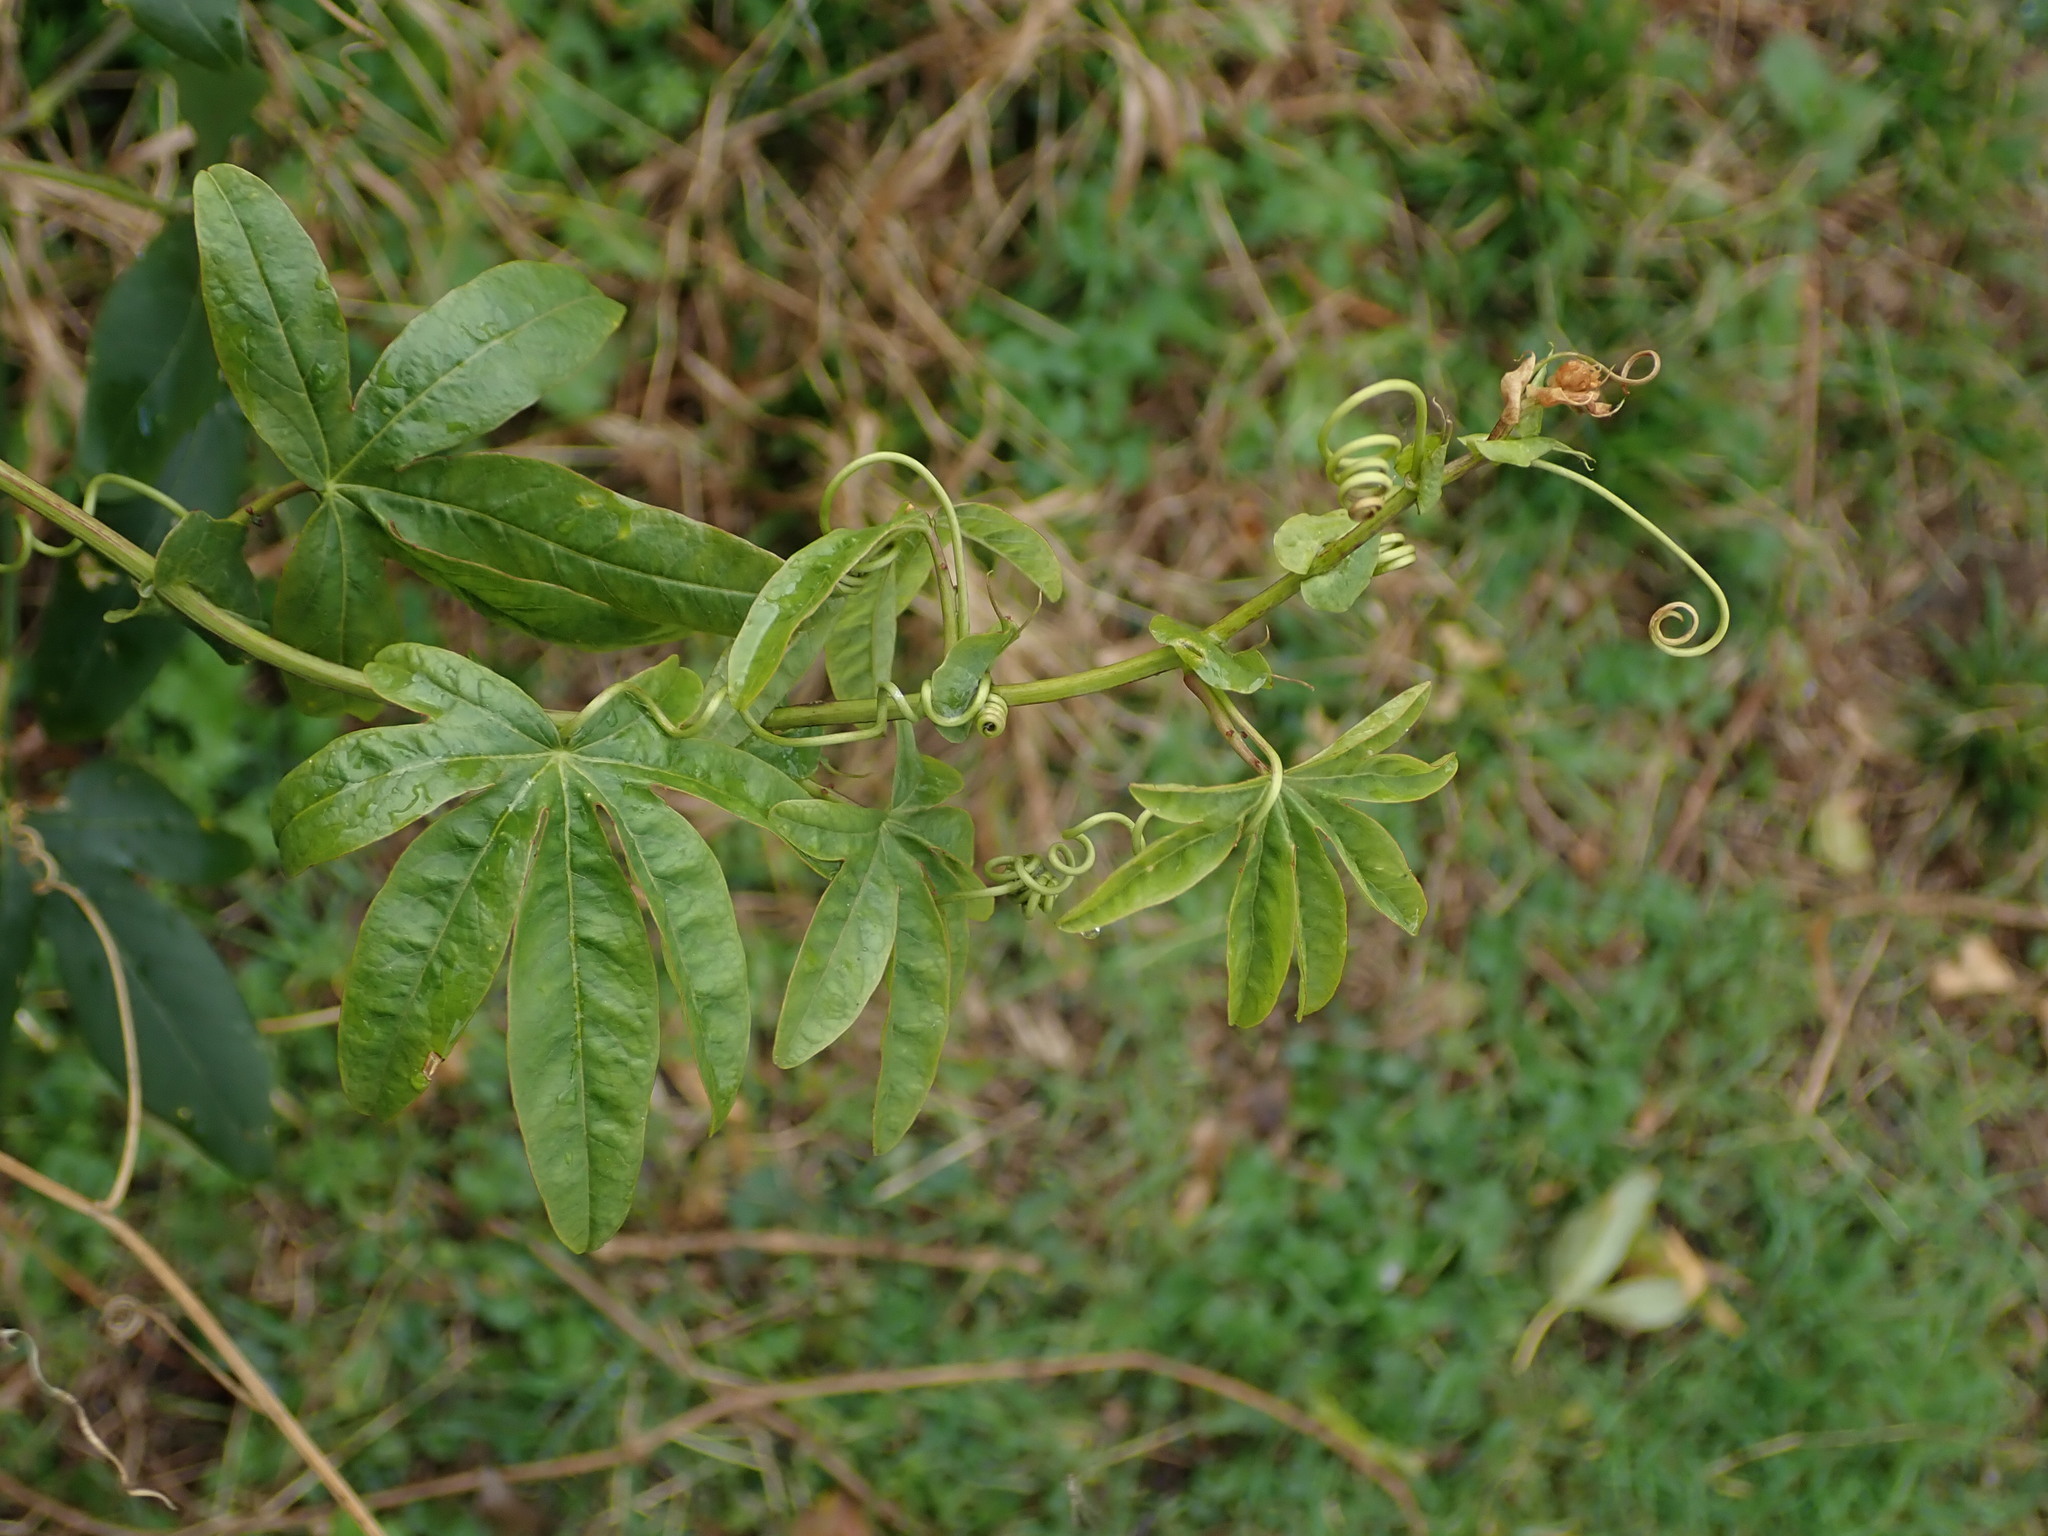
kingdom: Plantae
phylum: Tracheophyta
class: Magnoliopsida
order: Malpighiales
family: Passifloraceae
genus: Passiflora
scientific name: Passiflora caerulea
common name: Blue passionflower
